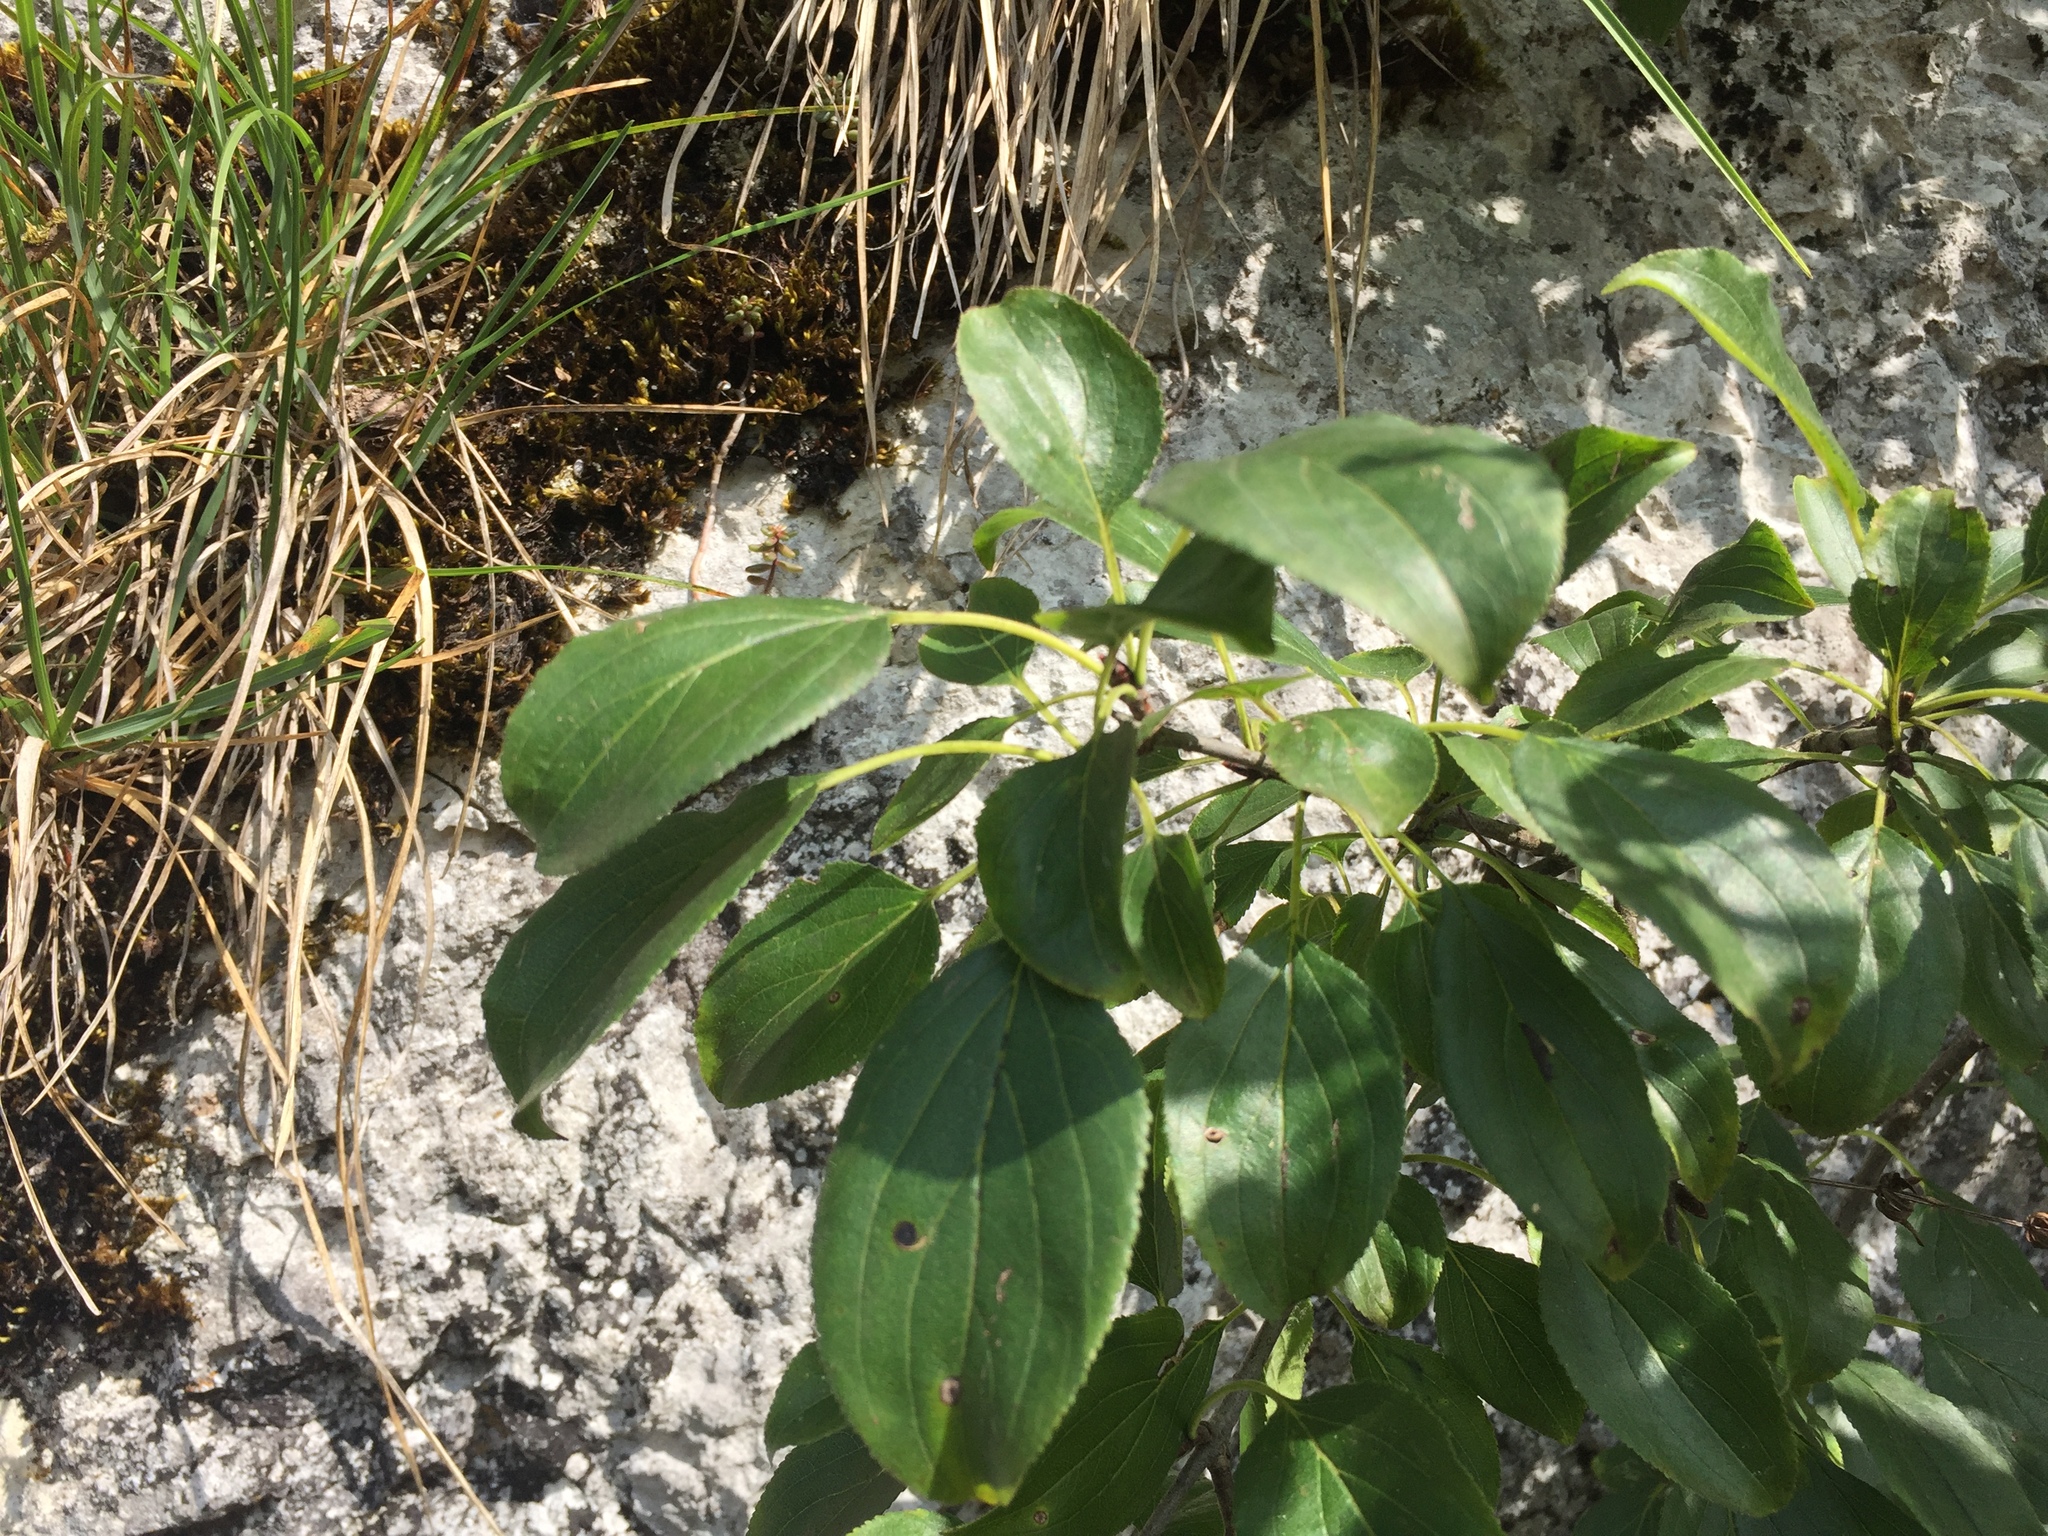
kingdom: Plantae
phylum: Tracheophyta
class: Magnoliopsida
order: Rosales
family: Rhamnaceae
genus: Rhamnus
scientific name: Rhamnus cathartica
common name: Common buckthorn
